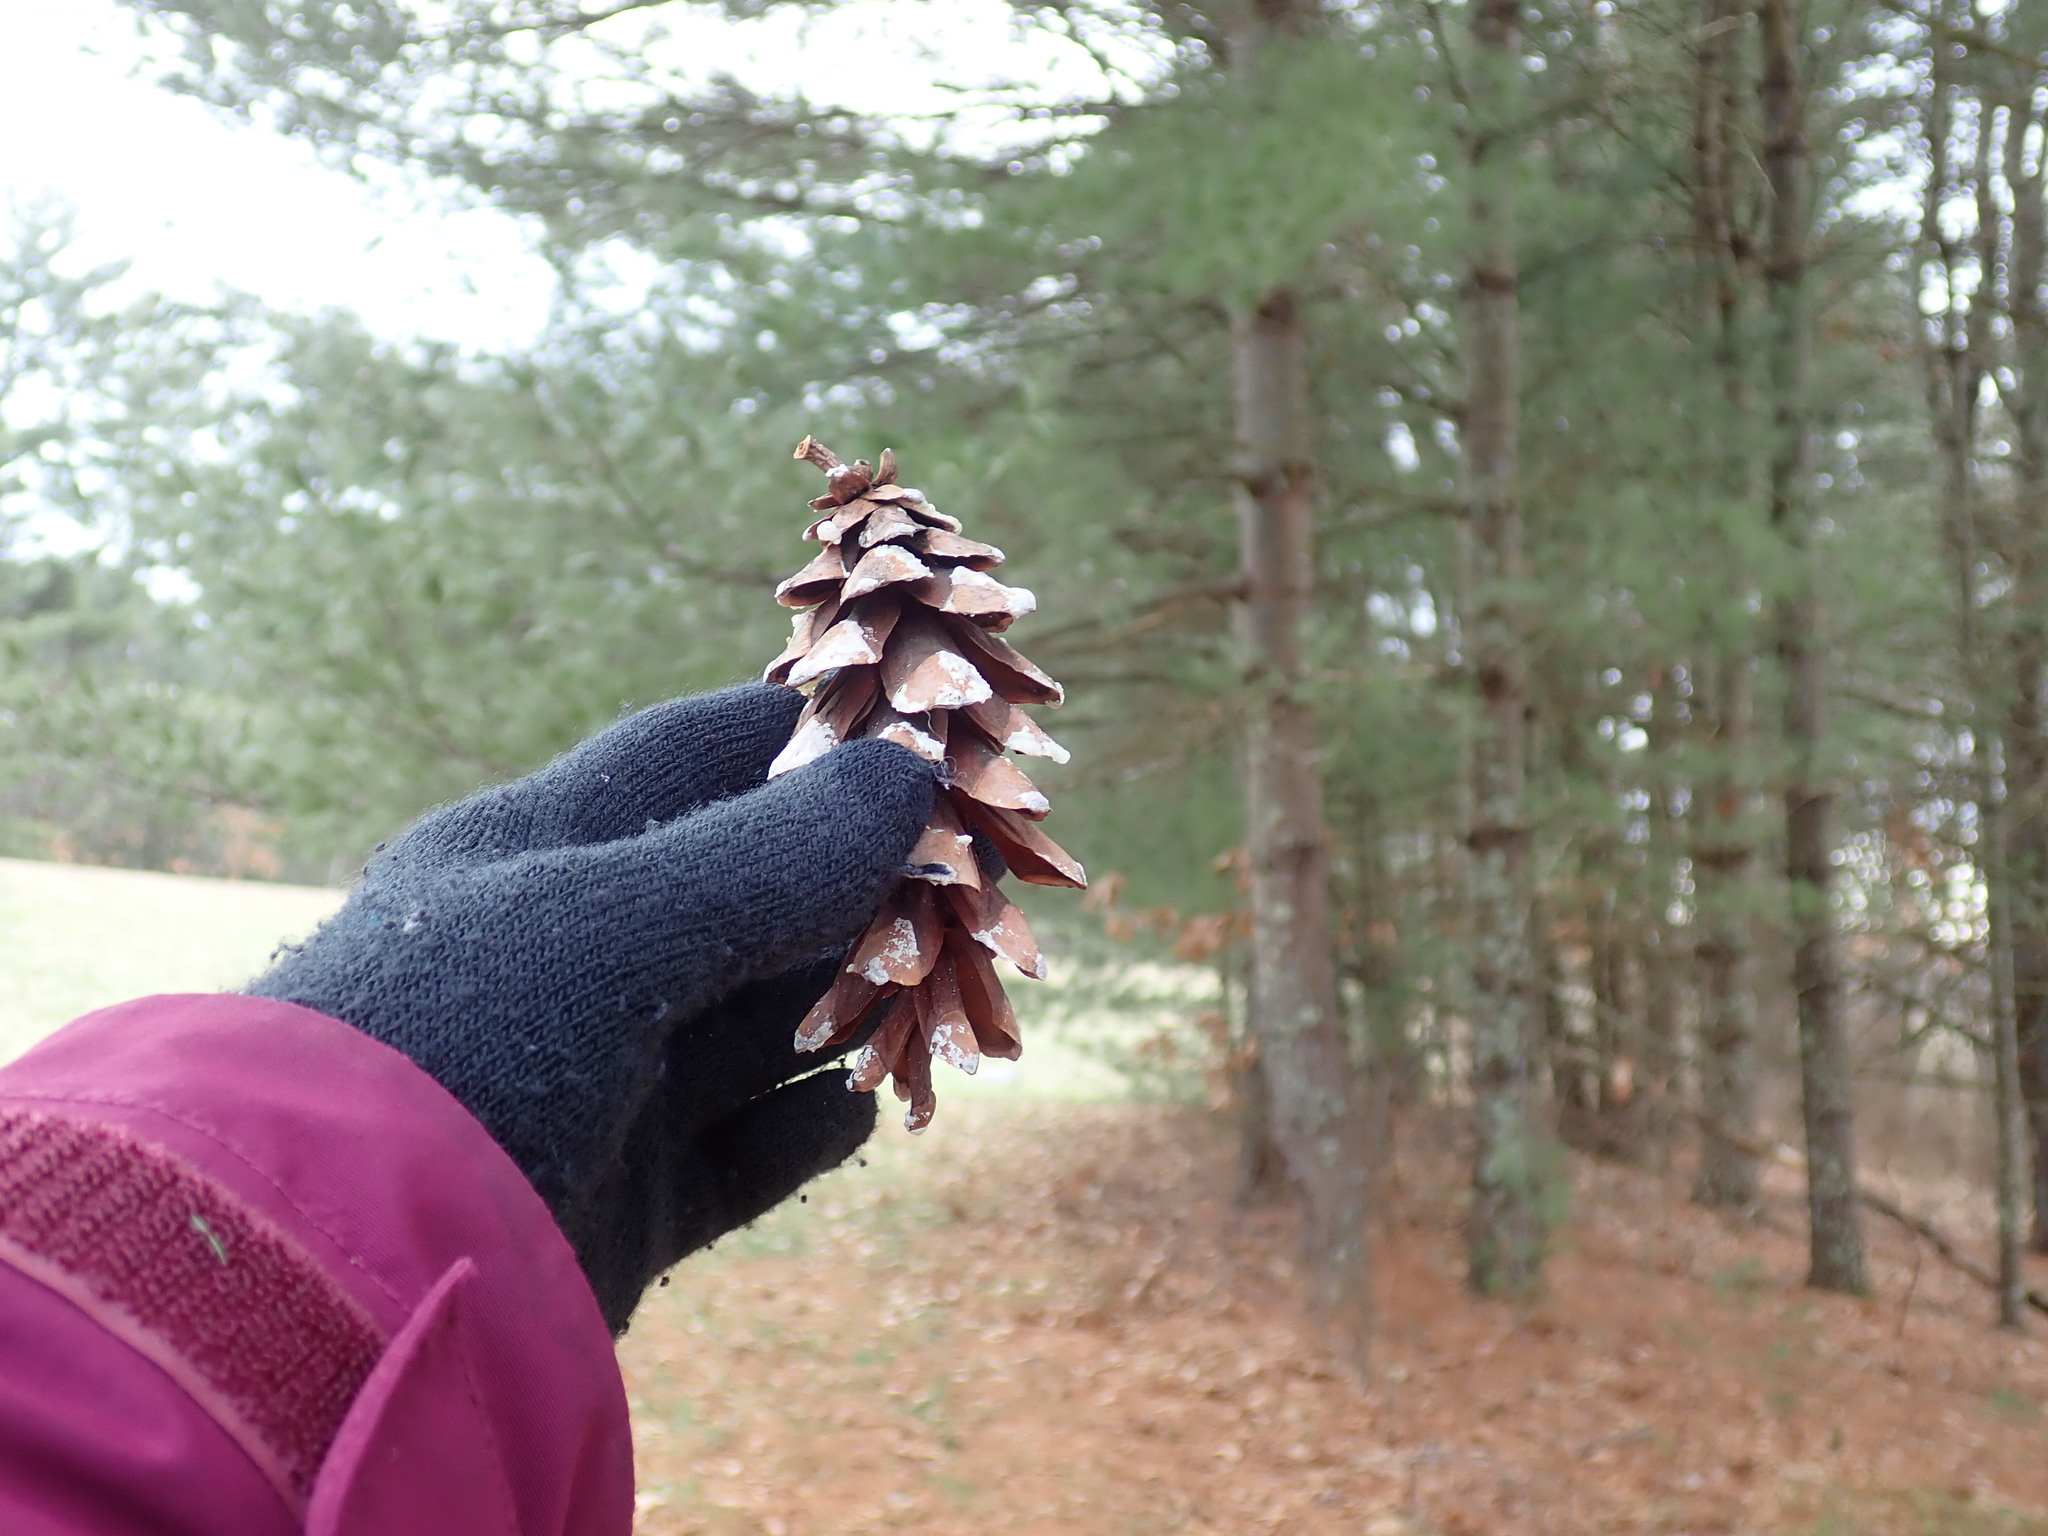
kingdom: Plantae
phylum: Tracheophyta
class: Pinopsida
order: Pinales
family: Pinaceae
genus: Pinus
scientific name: Pinus strobus
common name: Weymouth pine
